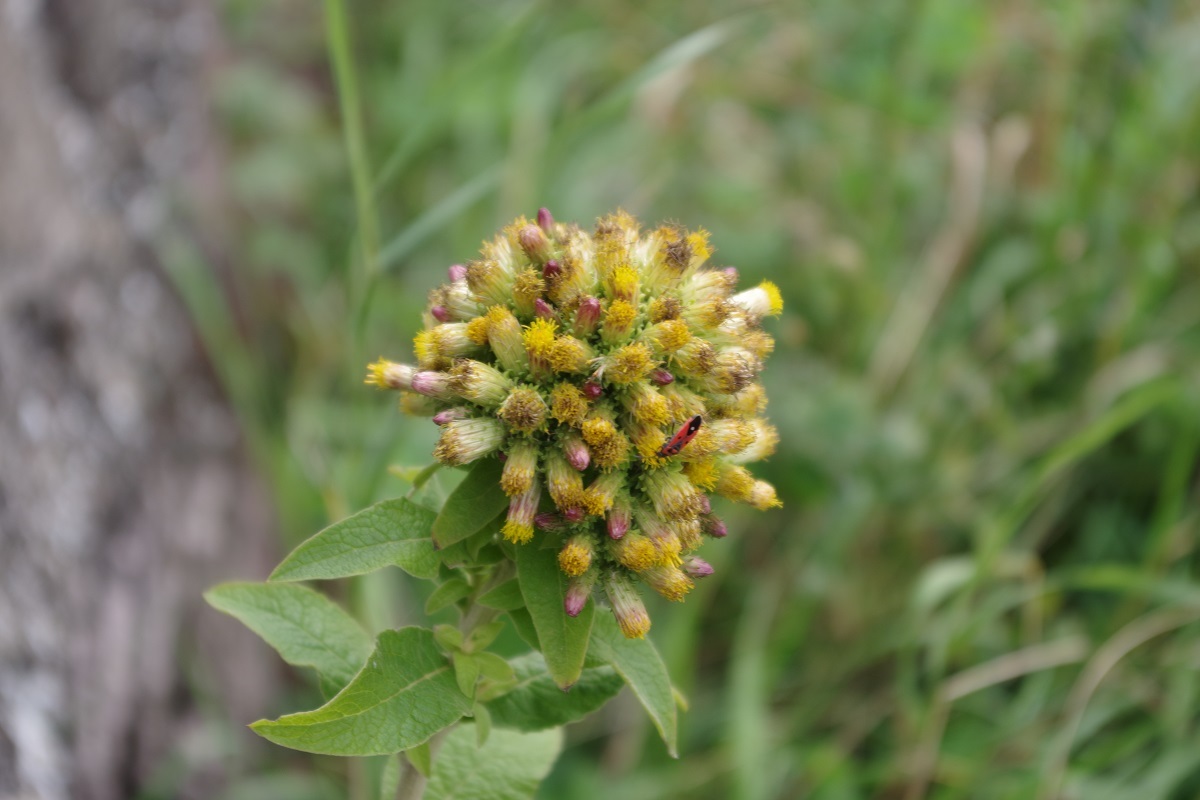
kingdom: Plantae
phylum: Tracheophyta
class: Magnoliopsida
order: Asterales
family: Asteraceae
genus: Pentanema
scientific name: Pentanema squarrosum
